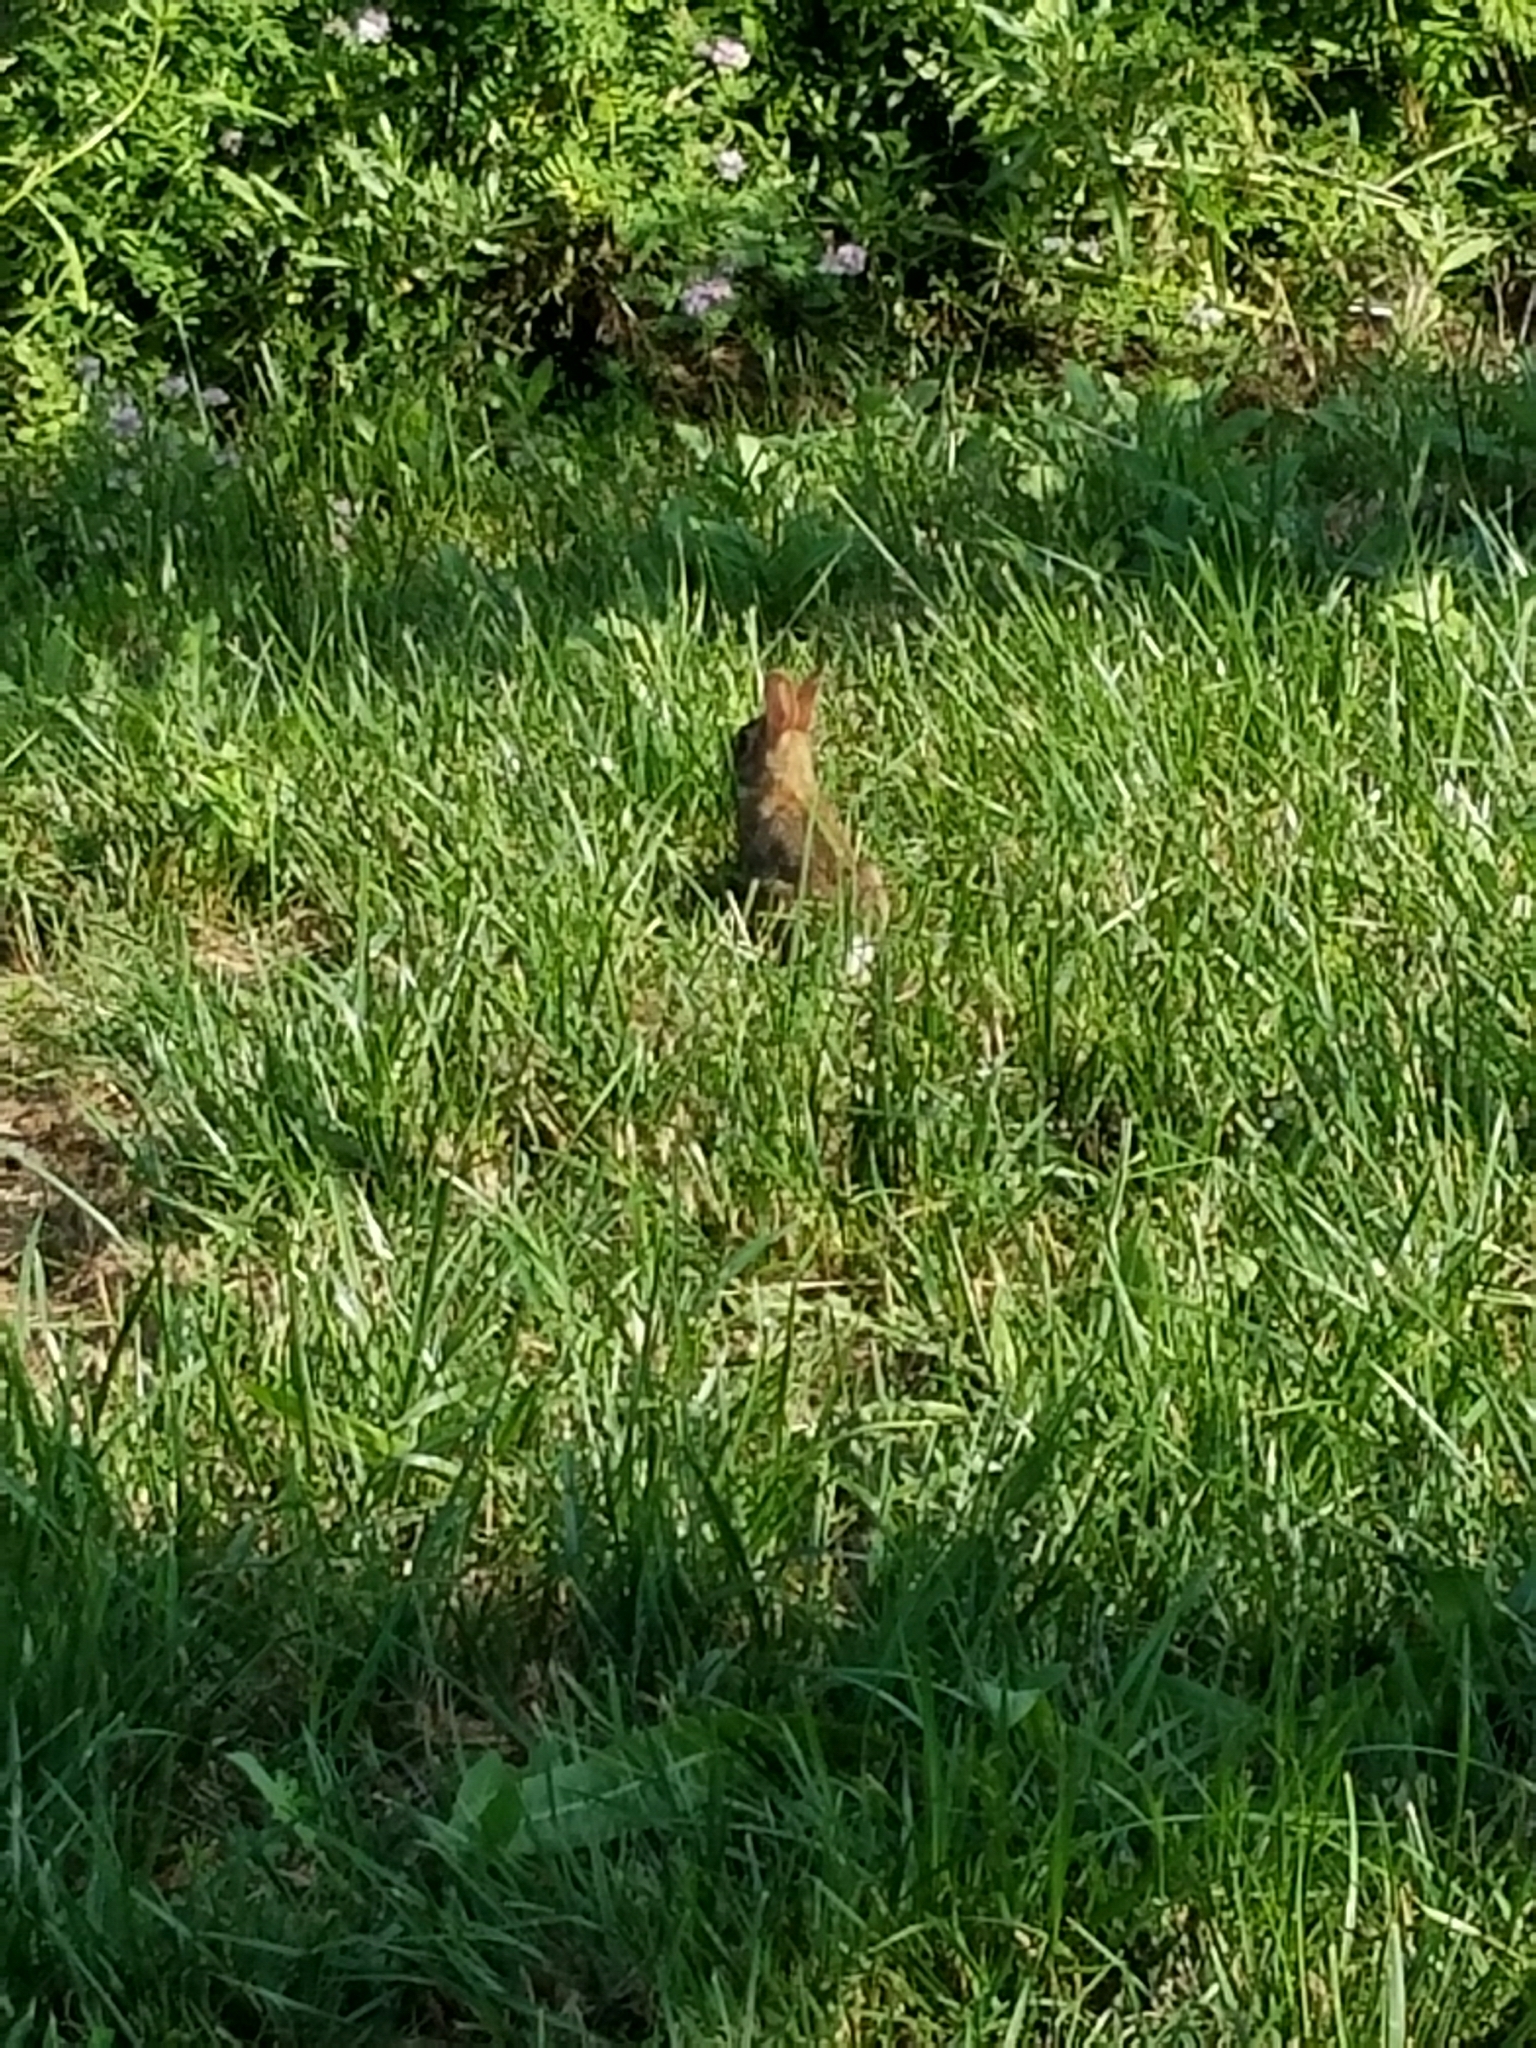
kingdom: Animalia
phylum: Chordata
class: Mammalia
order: Lagomorpha
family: Leporidae
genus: Sylvilagus
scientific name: Sylvilagus floridanus
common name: Eastern cottontail
